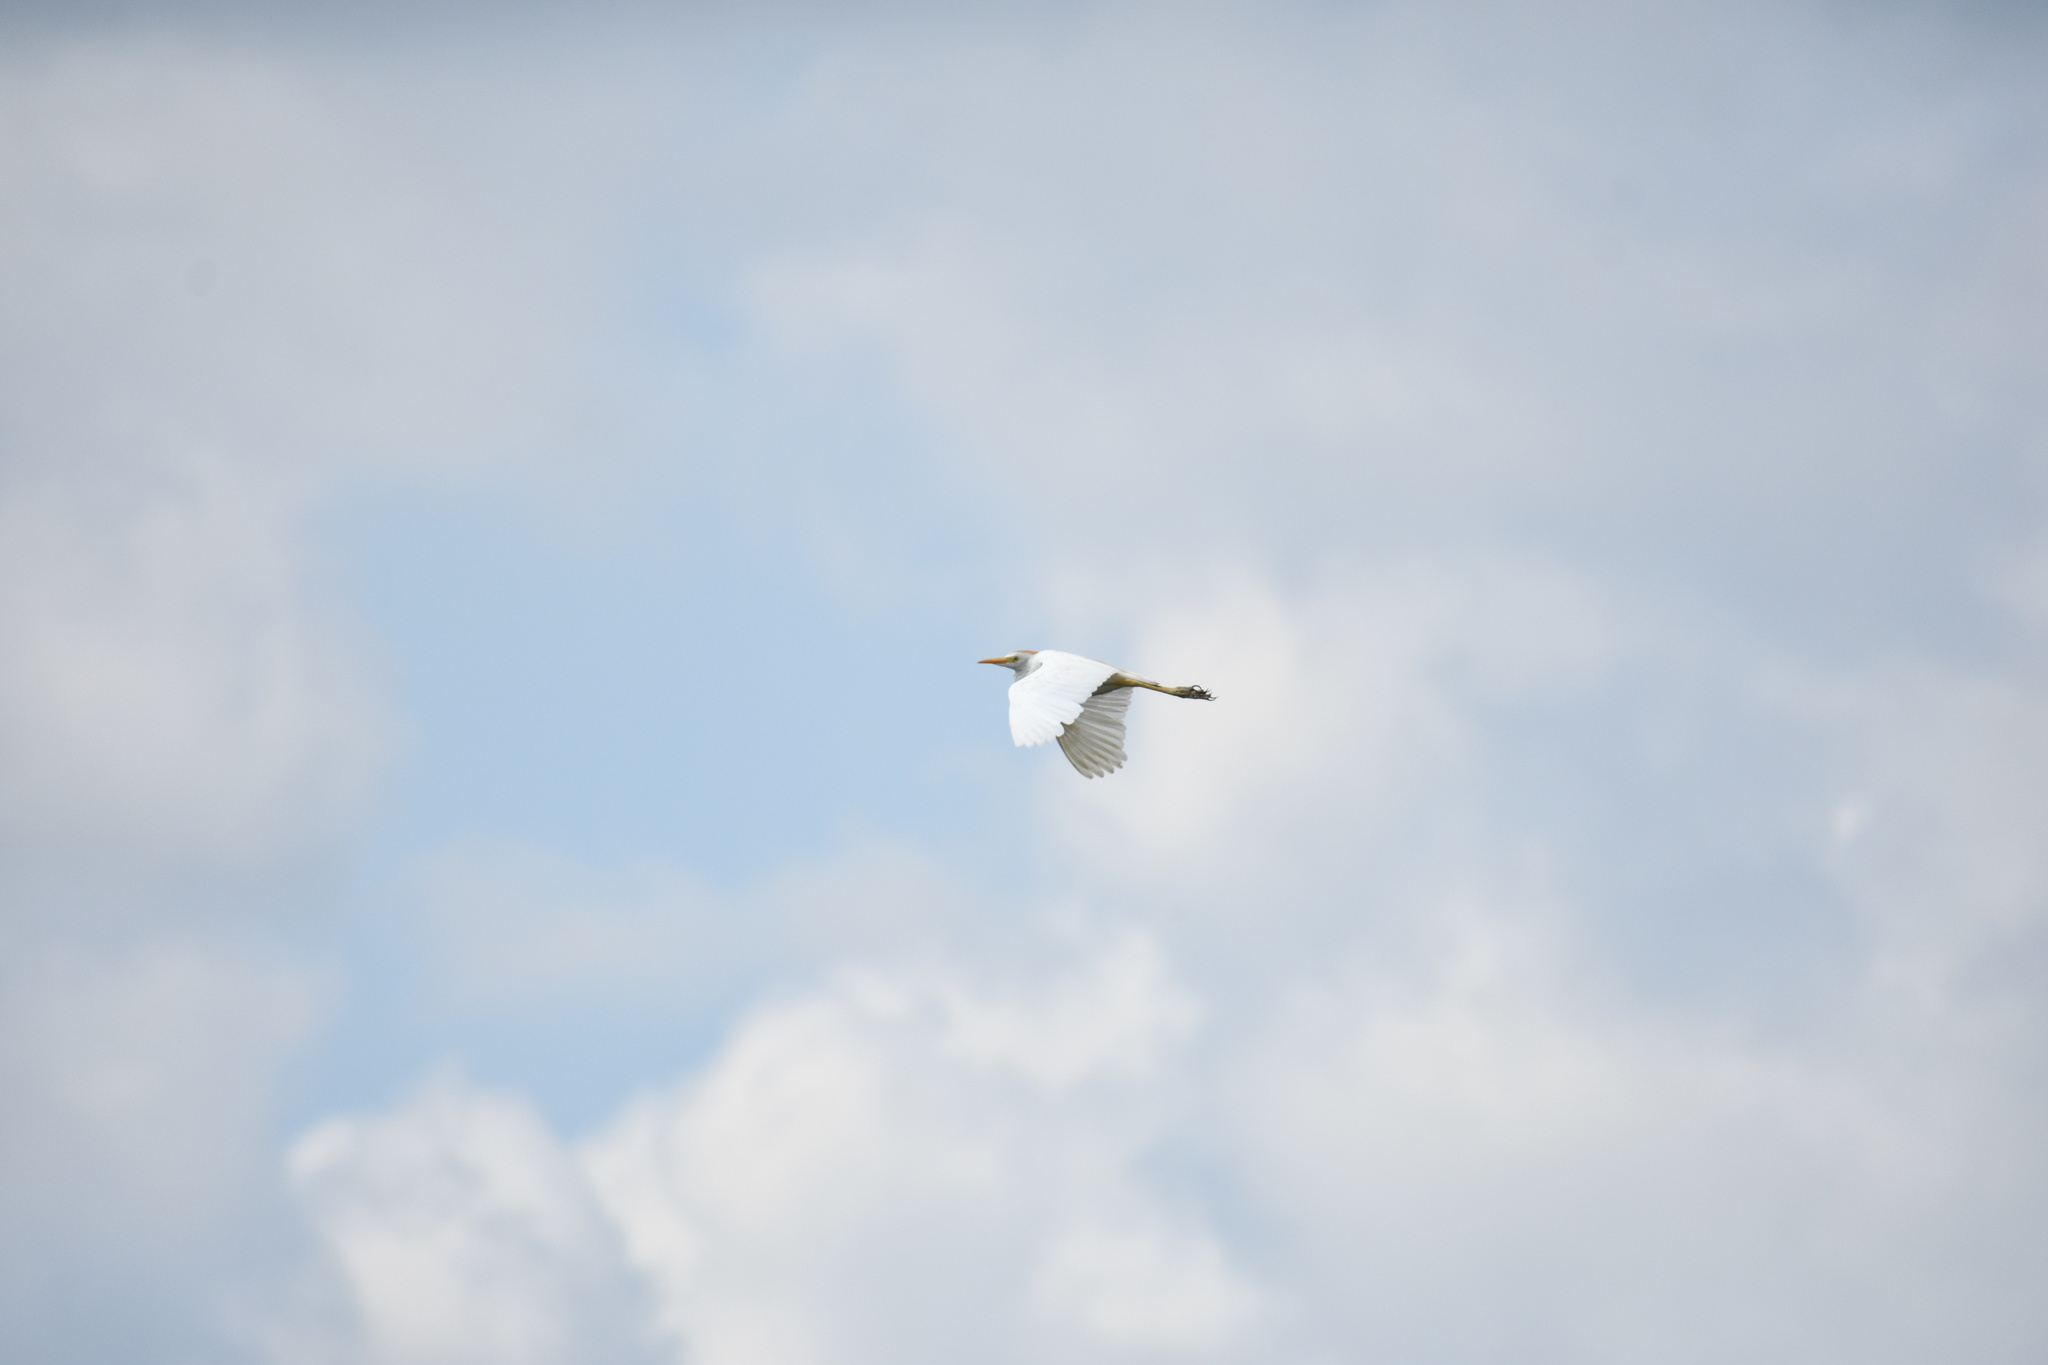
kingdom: Animalia
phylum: Chordata
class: Aves
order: Pelecaniformes
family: Ardeidae
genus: Bubulcus
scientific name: Bubulcus ibis
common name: Cattle egret
